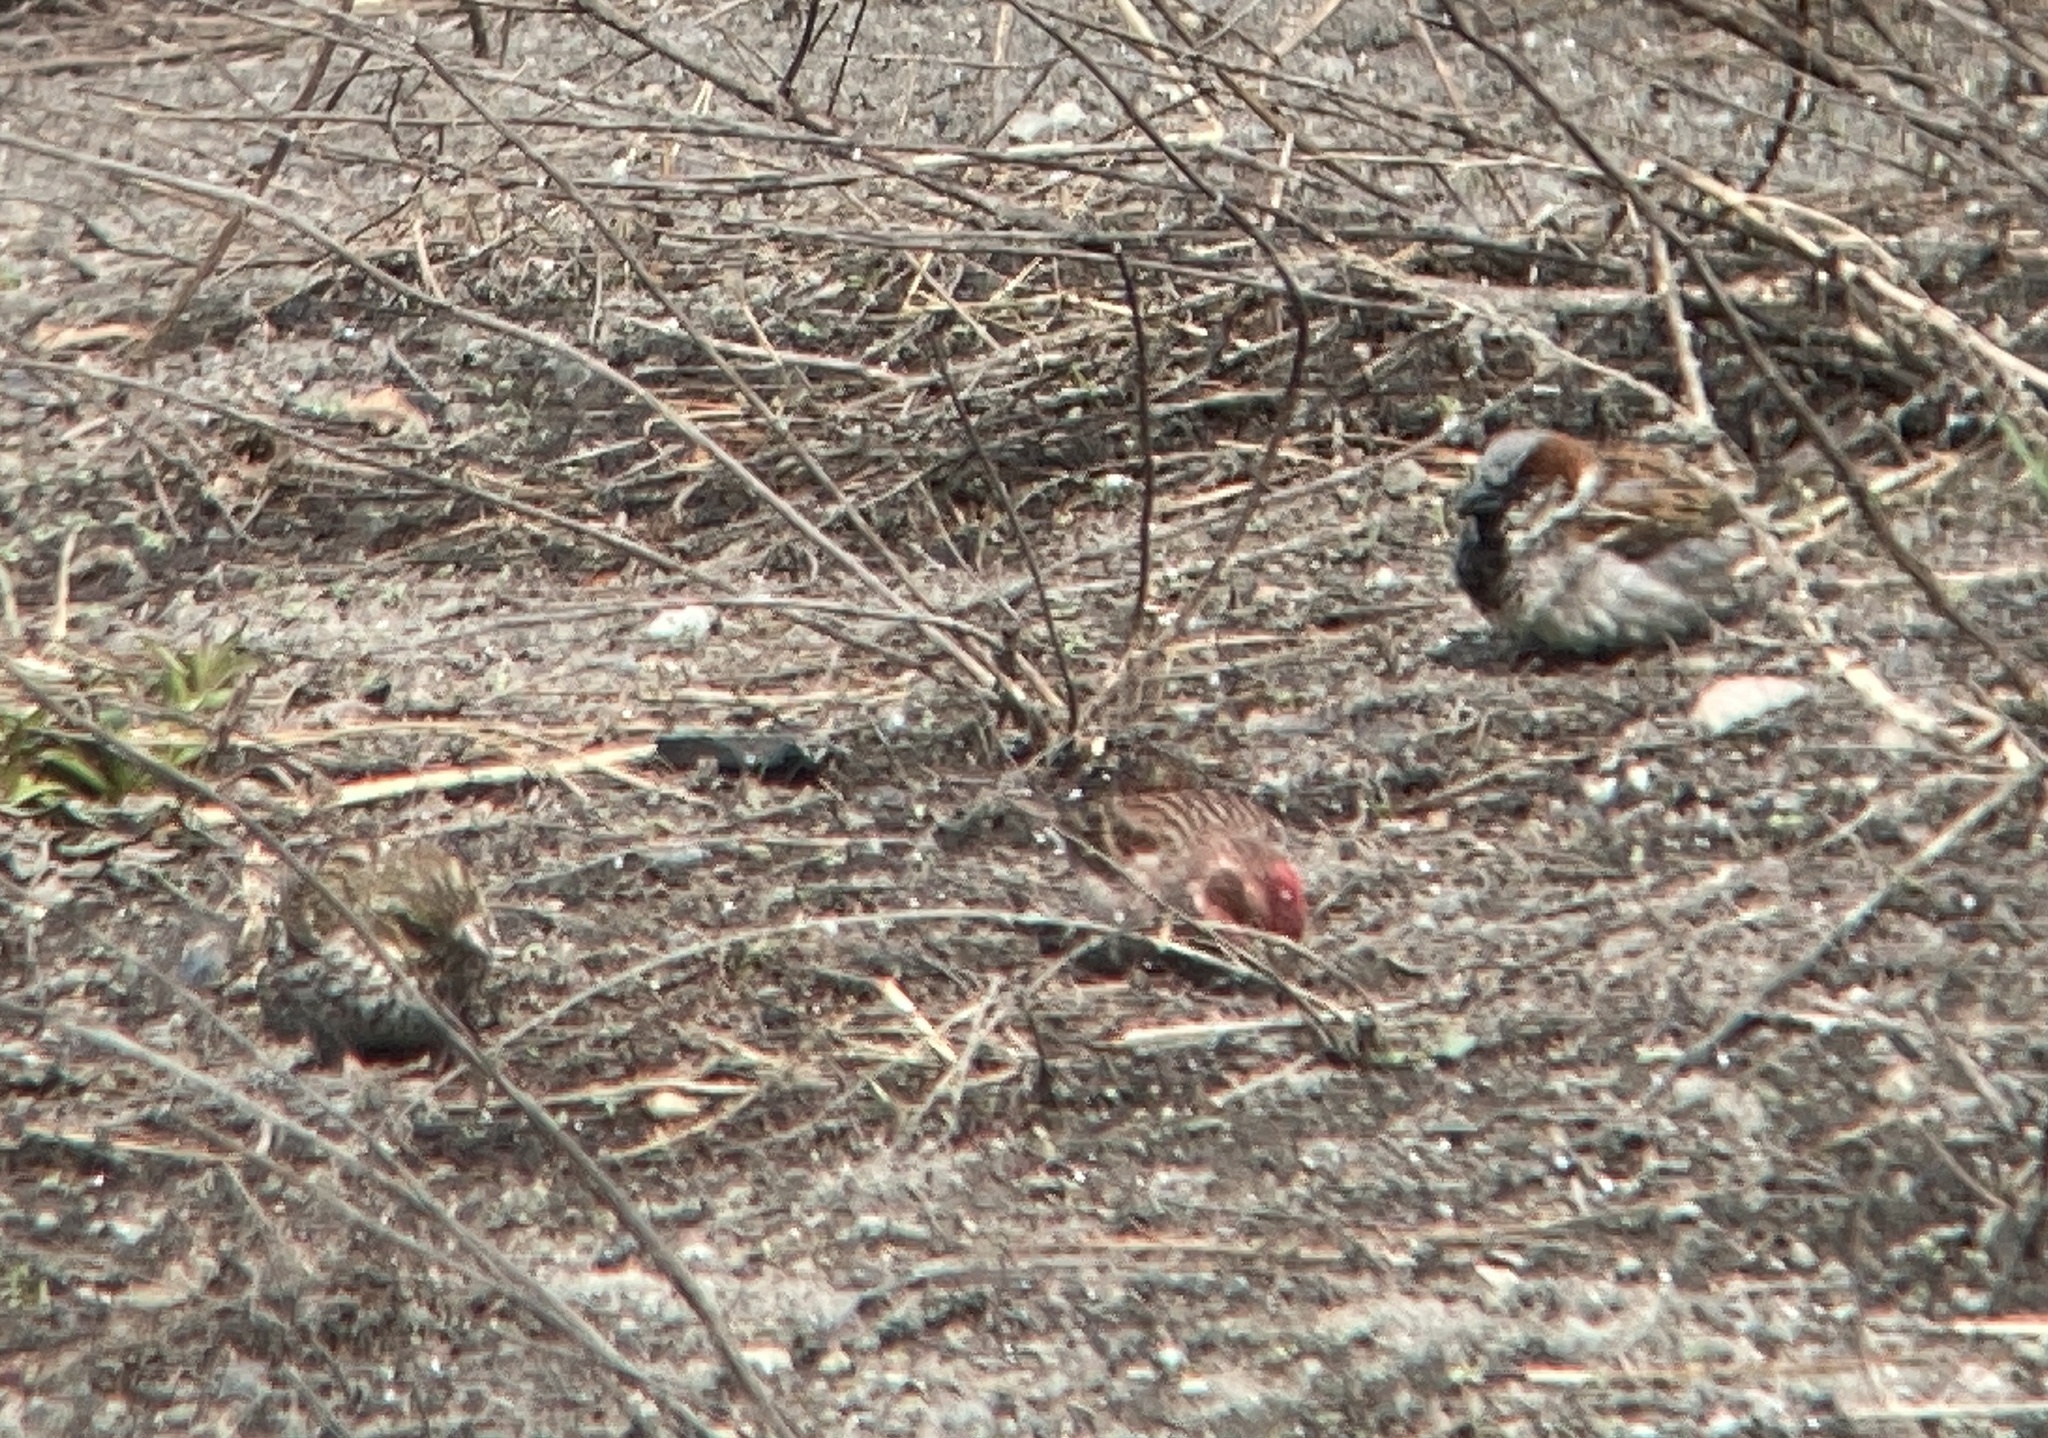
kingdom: Animalia
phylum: Chordata
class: Aves
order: Passeriformes
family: Fringillidae
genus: Haemorhous
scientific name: Haemorhous cassinii
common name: Cassin's finch
